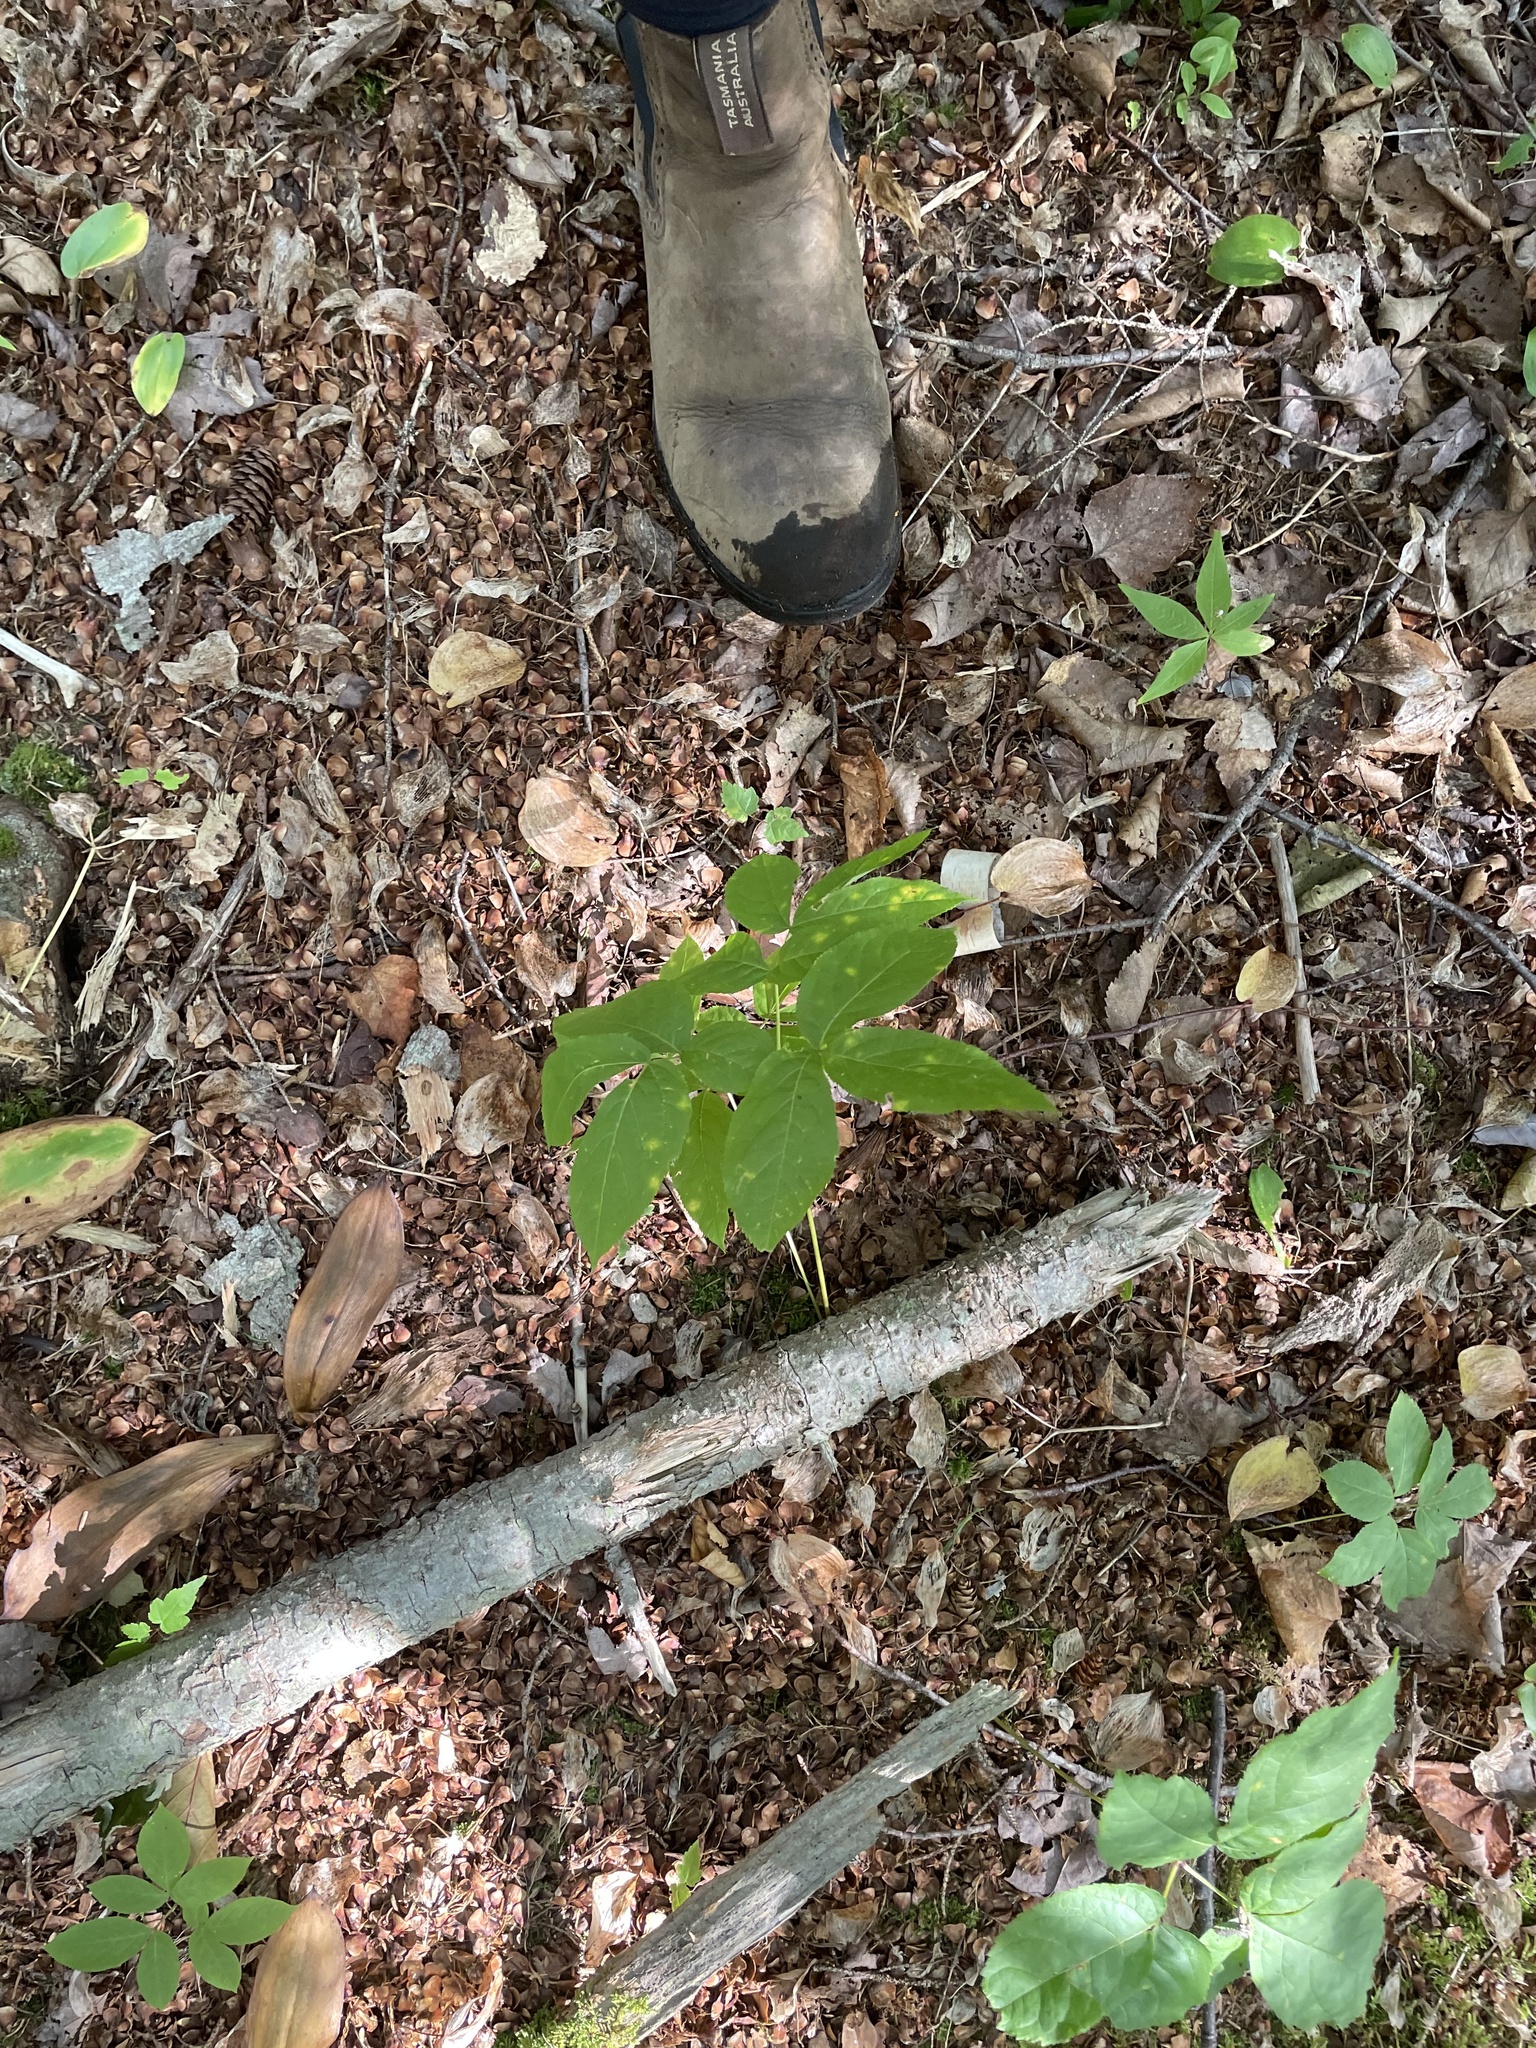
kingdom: Plantae
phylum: Tracheophyta
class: Magnoliopsida
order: Apiales
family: Araliaceae
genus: Aralia
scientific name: Aralia nudicaulis
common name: Wild sarsaparilla
